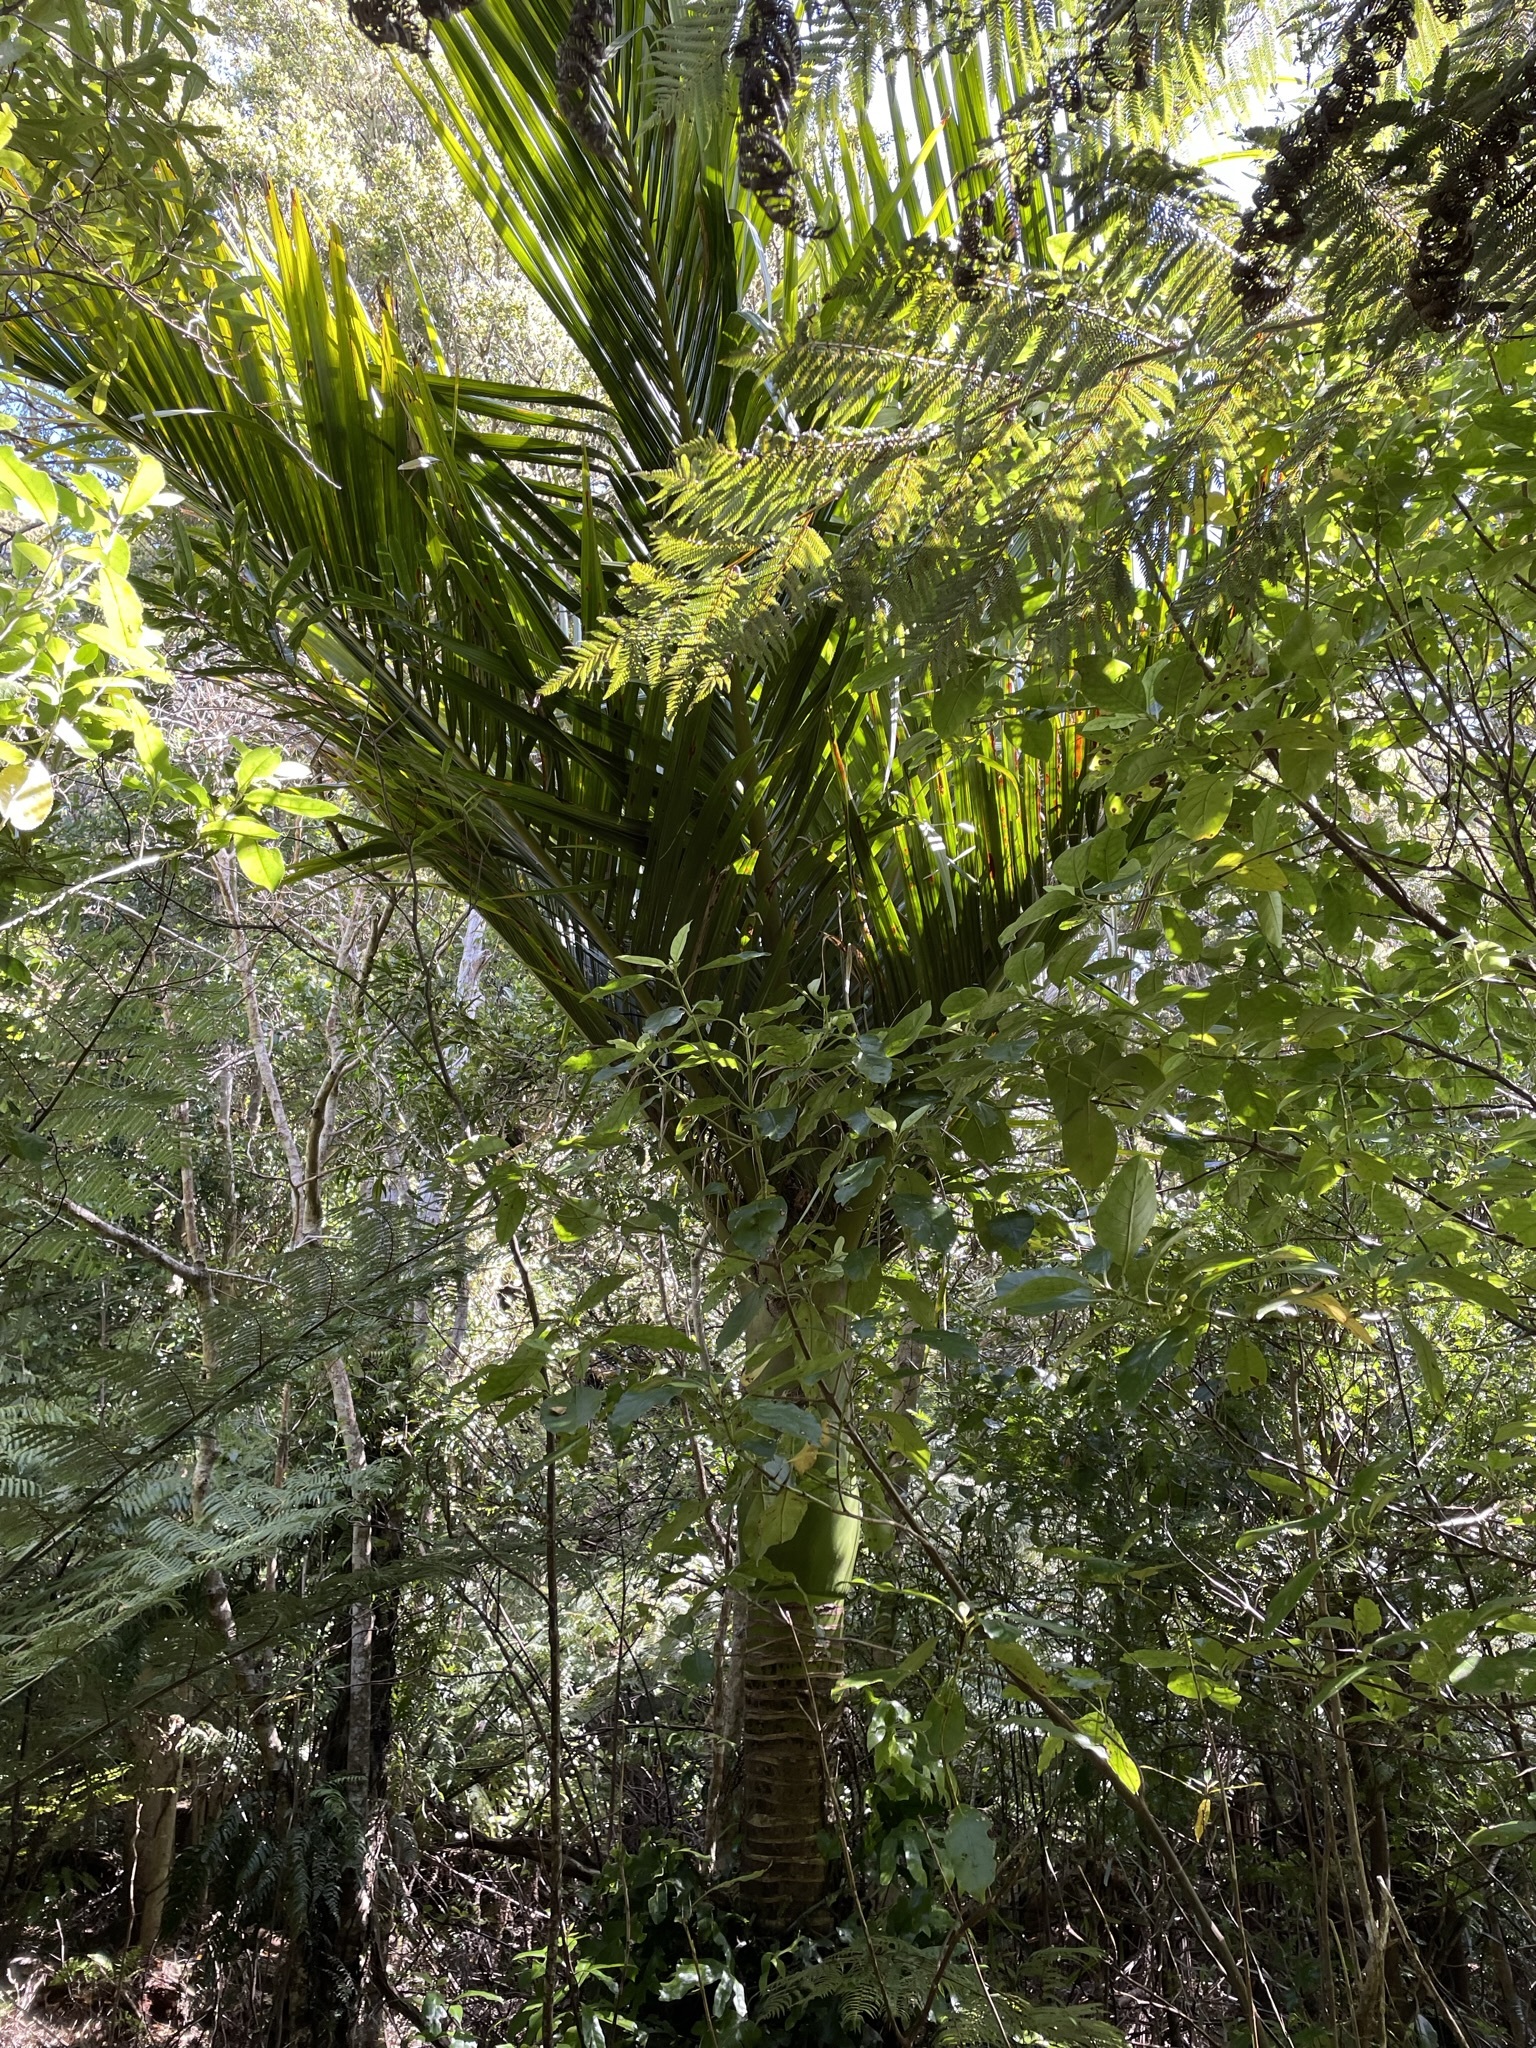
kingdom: Plantae
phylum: Tracheophyta
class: Liliopsida
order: Arecales
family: Arecaceae
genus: Rhopalostylis
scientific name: Rhopalostylis sapida
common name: Feather-duster palm
